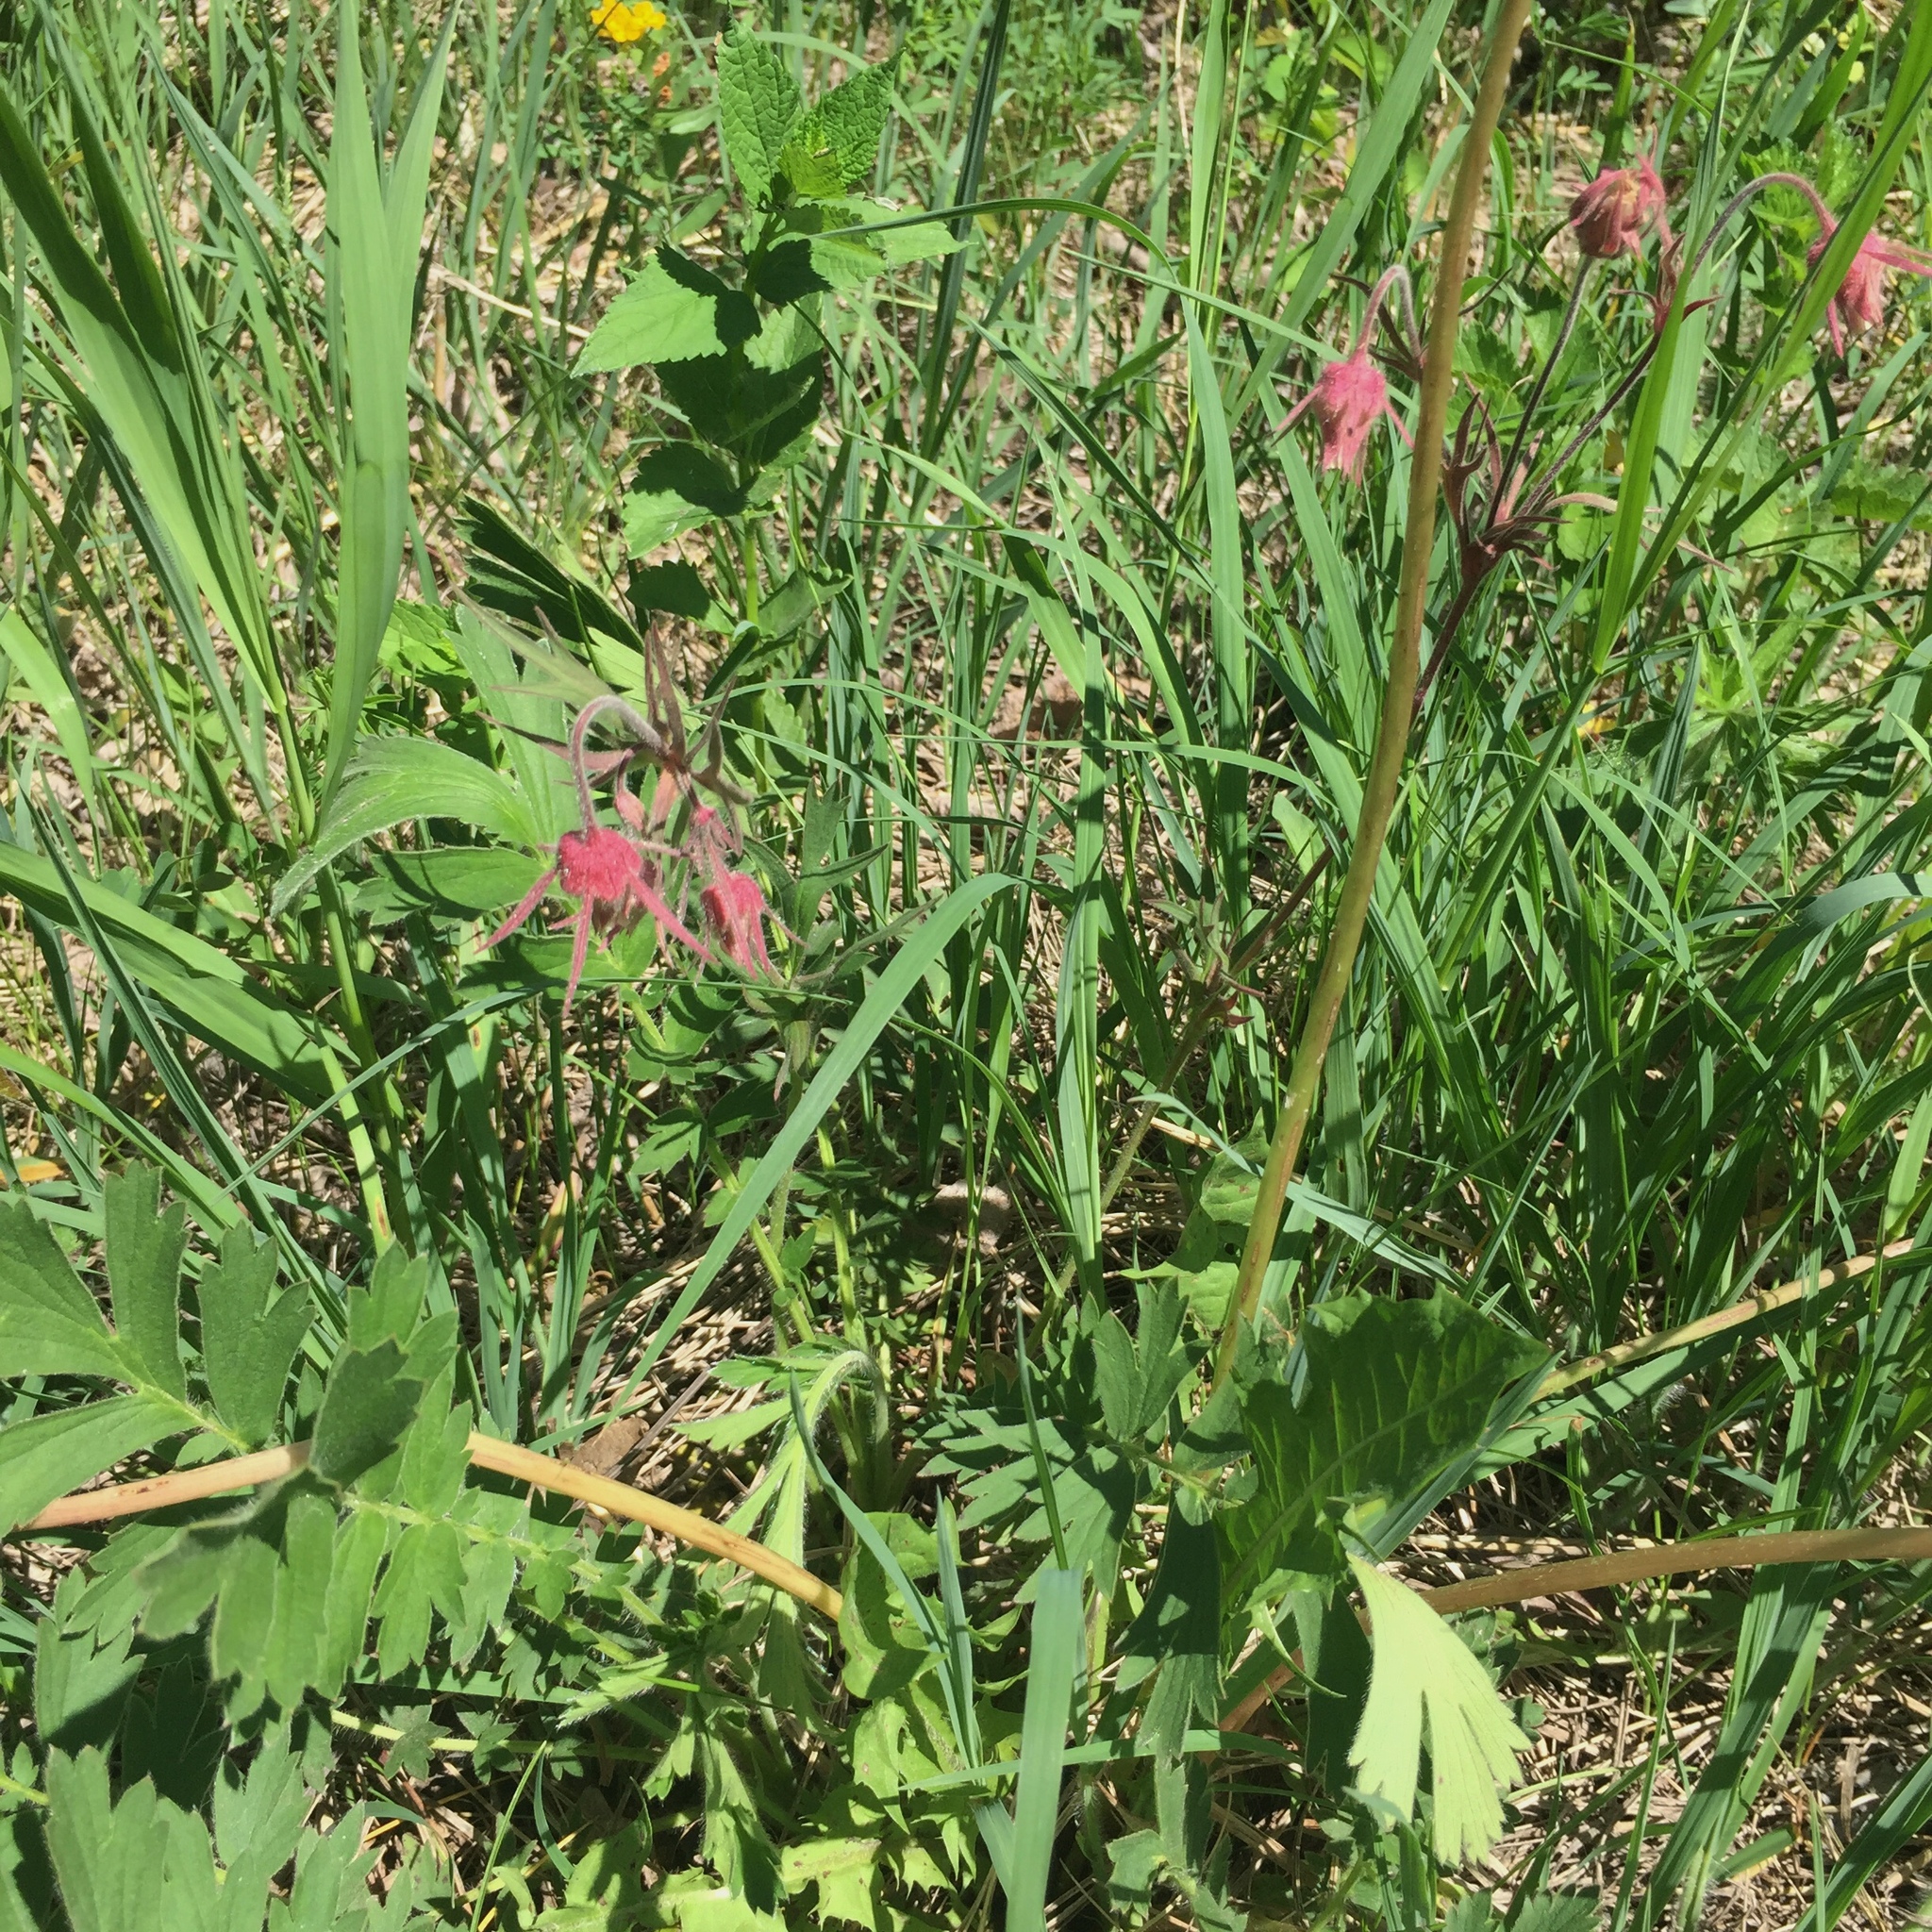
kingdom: Plantae
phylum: Tracheophyta
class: Magnoliopsida
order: Rosales
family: Rosaceae
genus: Geum
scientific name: Geum triflorum
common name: Old man's whiskers
